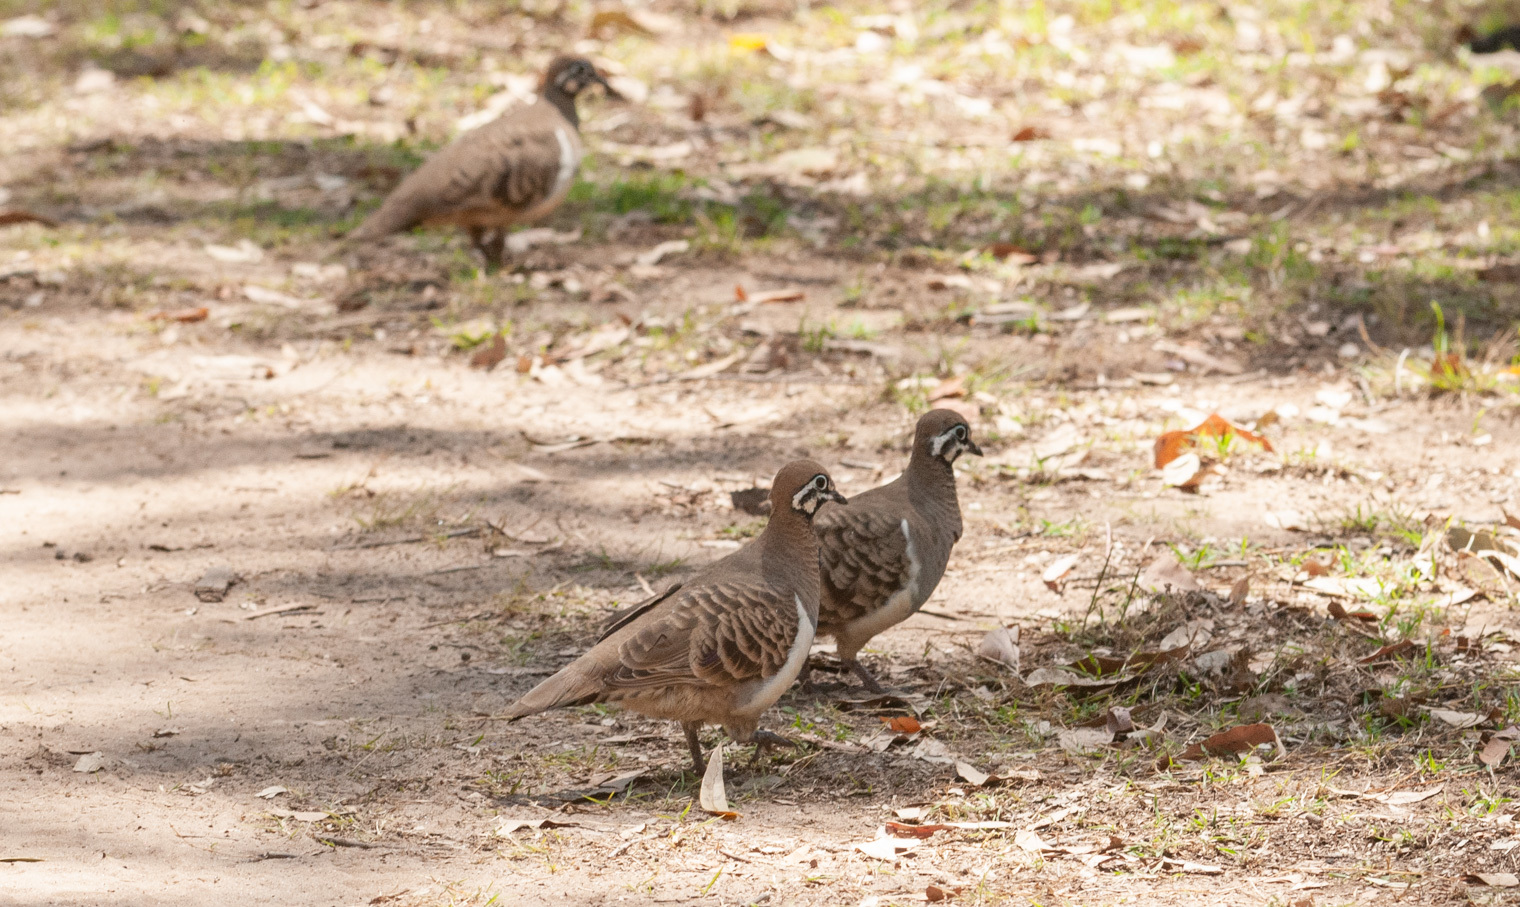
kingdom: Animalia
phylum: Chordata
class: Aves
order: Columbiformes
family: Columbidae
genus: Geophaps
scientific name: Geophaps scripta
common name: Squatter pigeon
